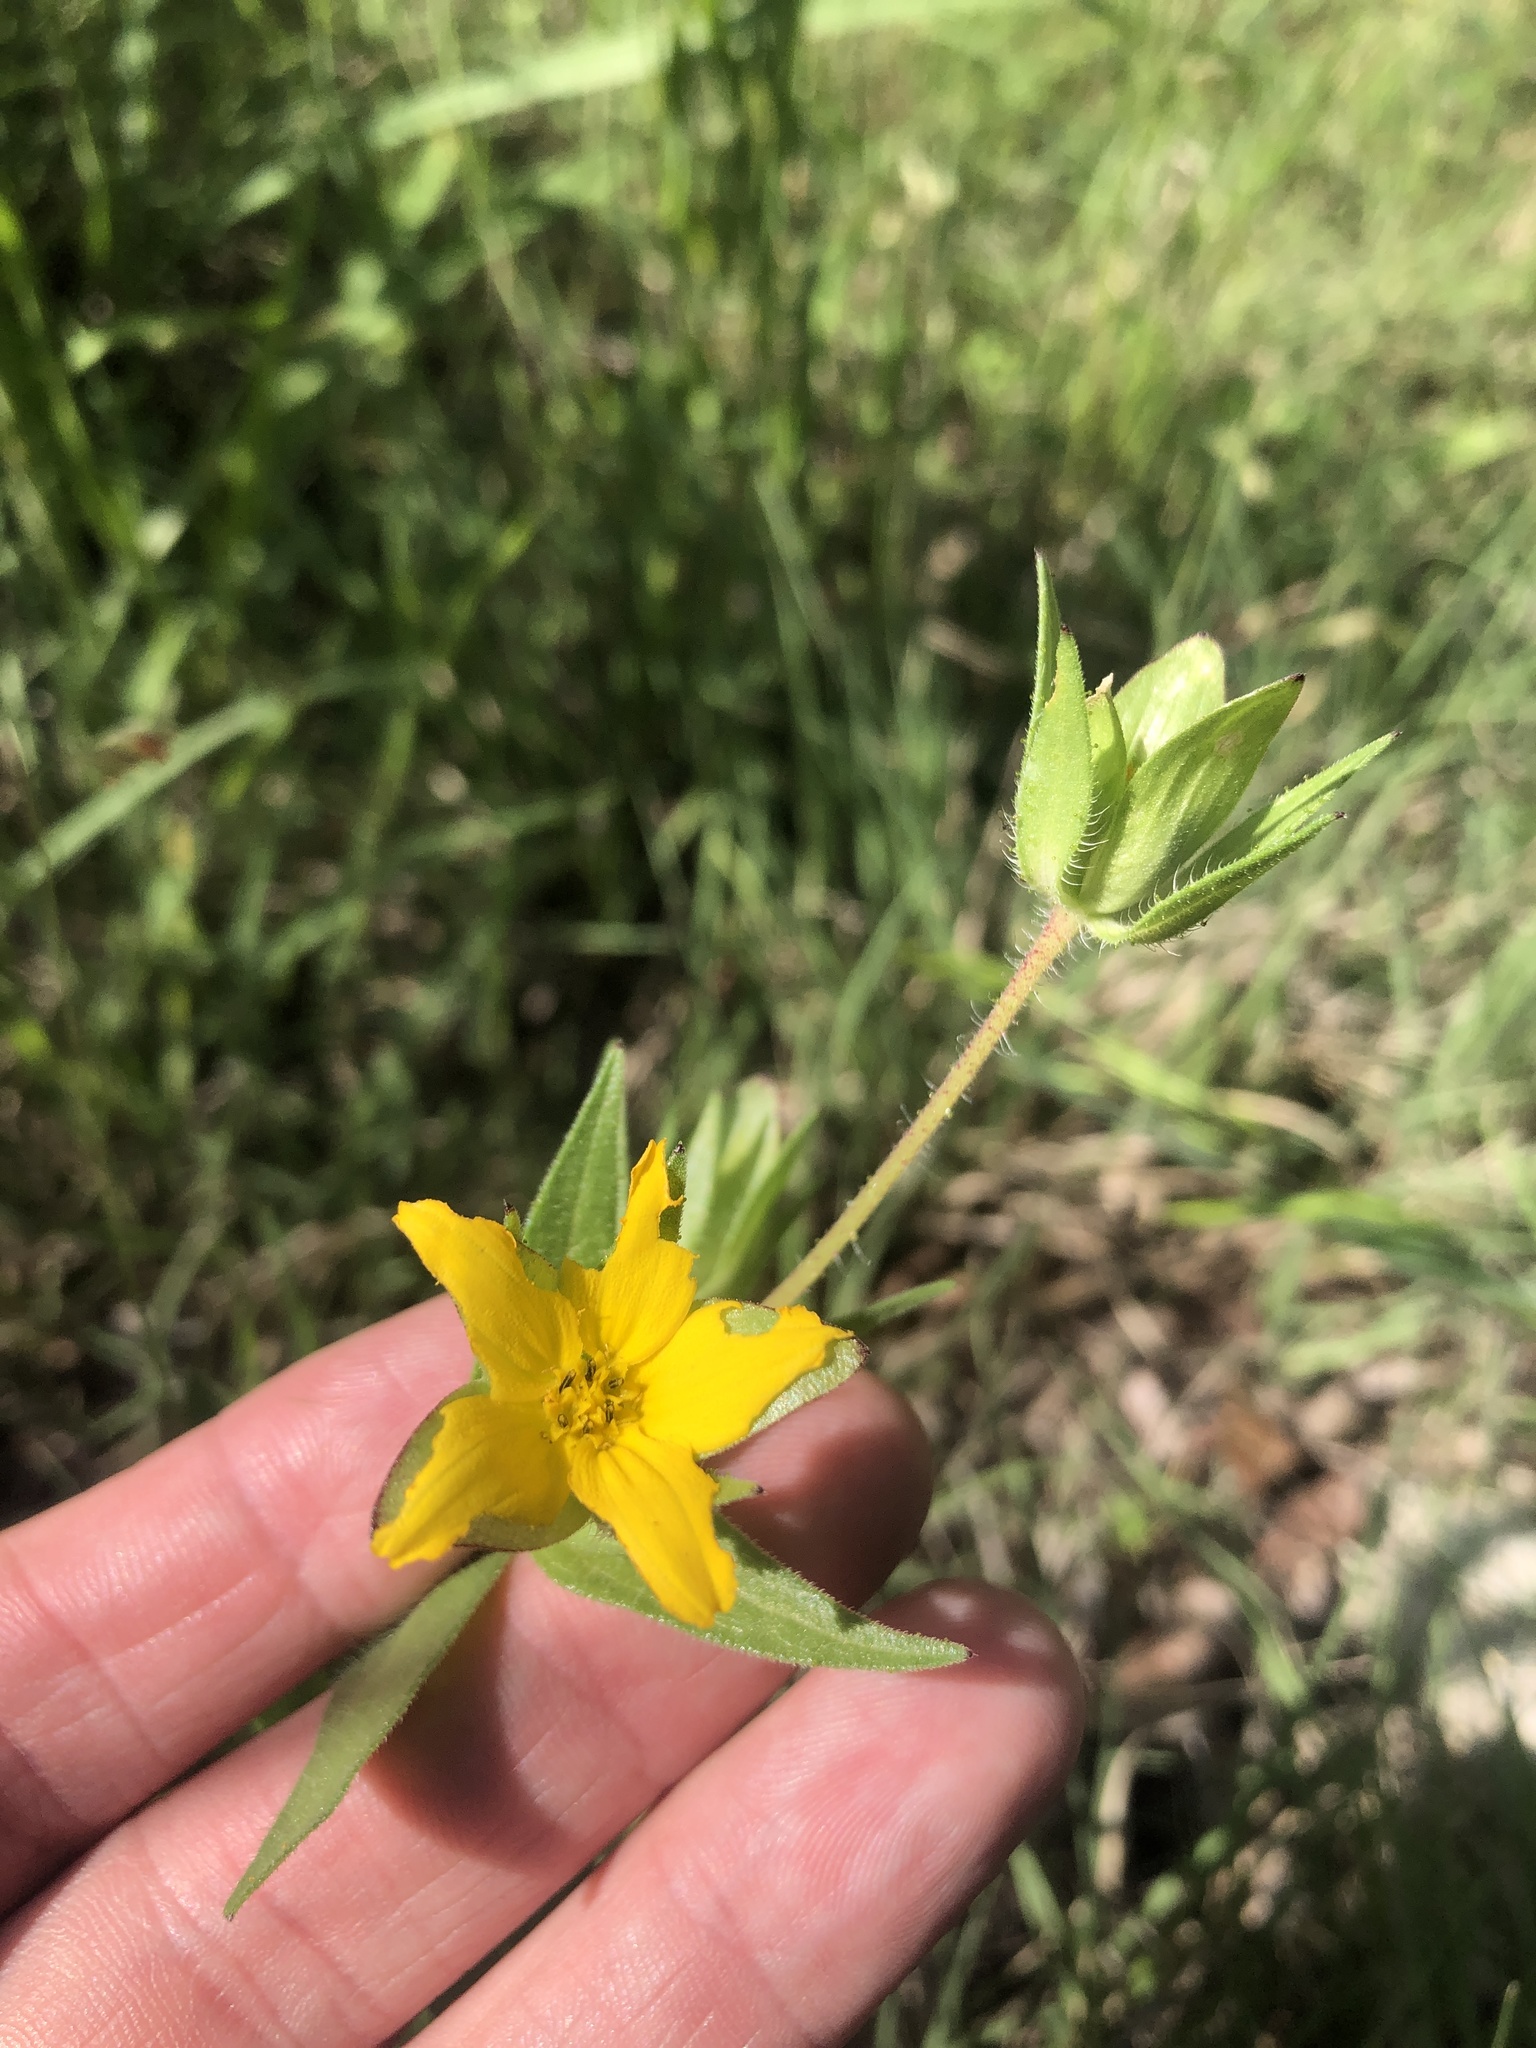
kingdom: Plantae
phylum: Tracheophyta
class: Magnoliopsida
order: Asterales
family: Asteraceae
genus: Lindheimera
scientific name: Lindheimera texana
